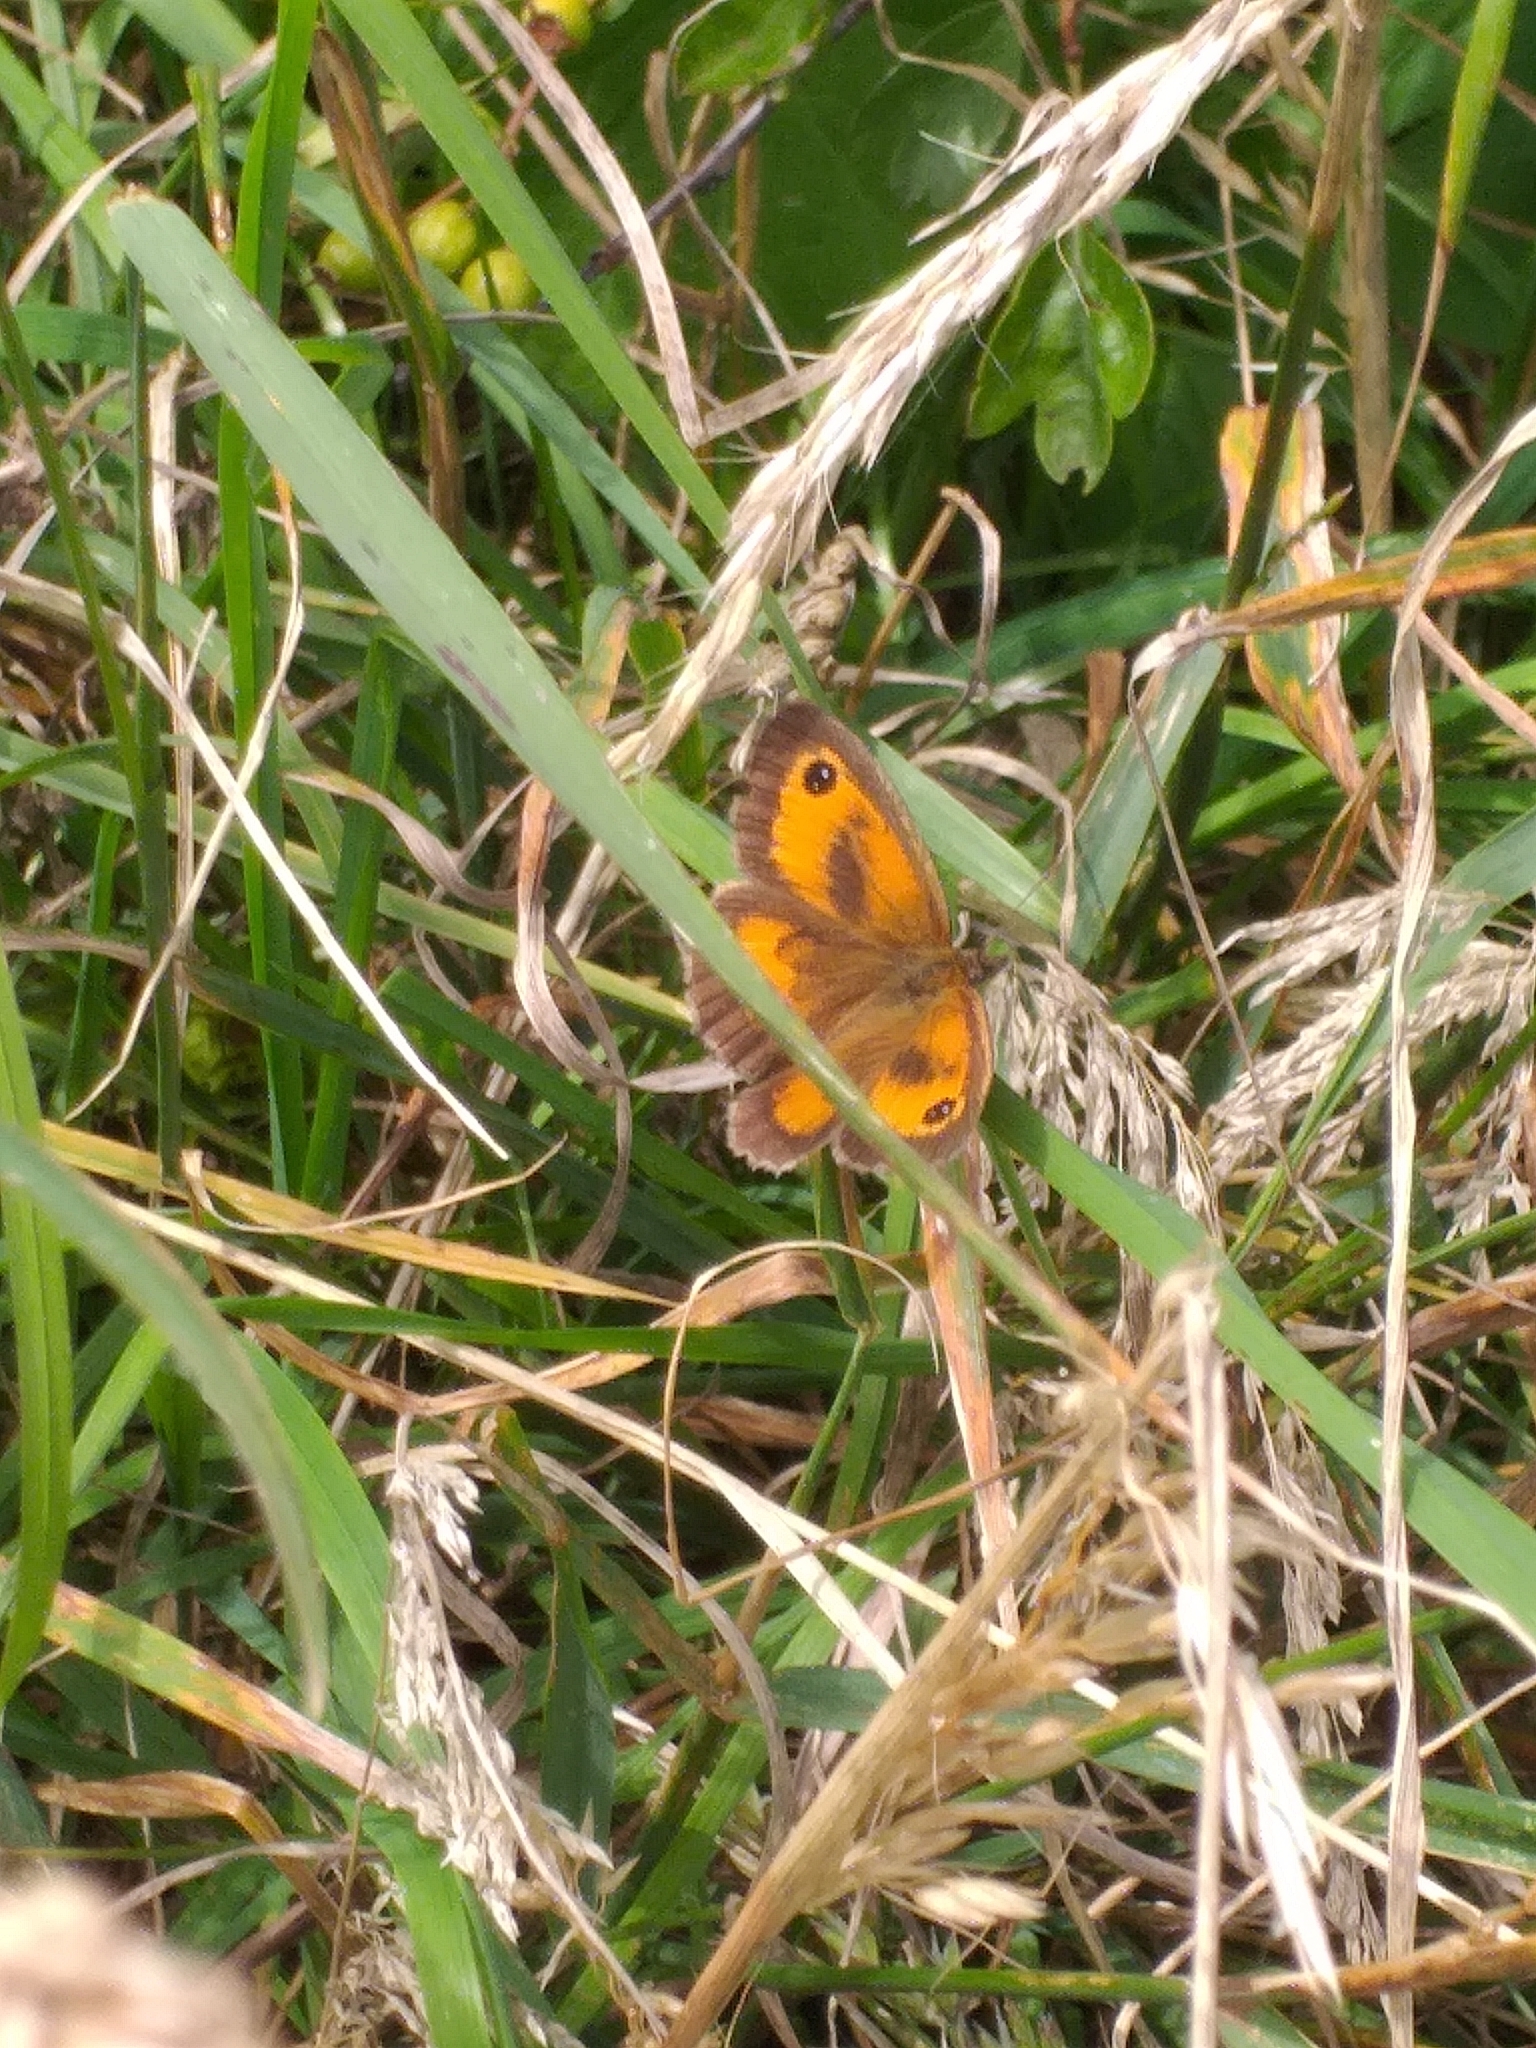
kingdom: Animalia
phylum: Arthropoda
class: Insecta
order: Lepidoptera
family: Nymphalidae
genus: Pyronia
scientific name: Pyronia tithonus
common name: Gatekeeper
